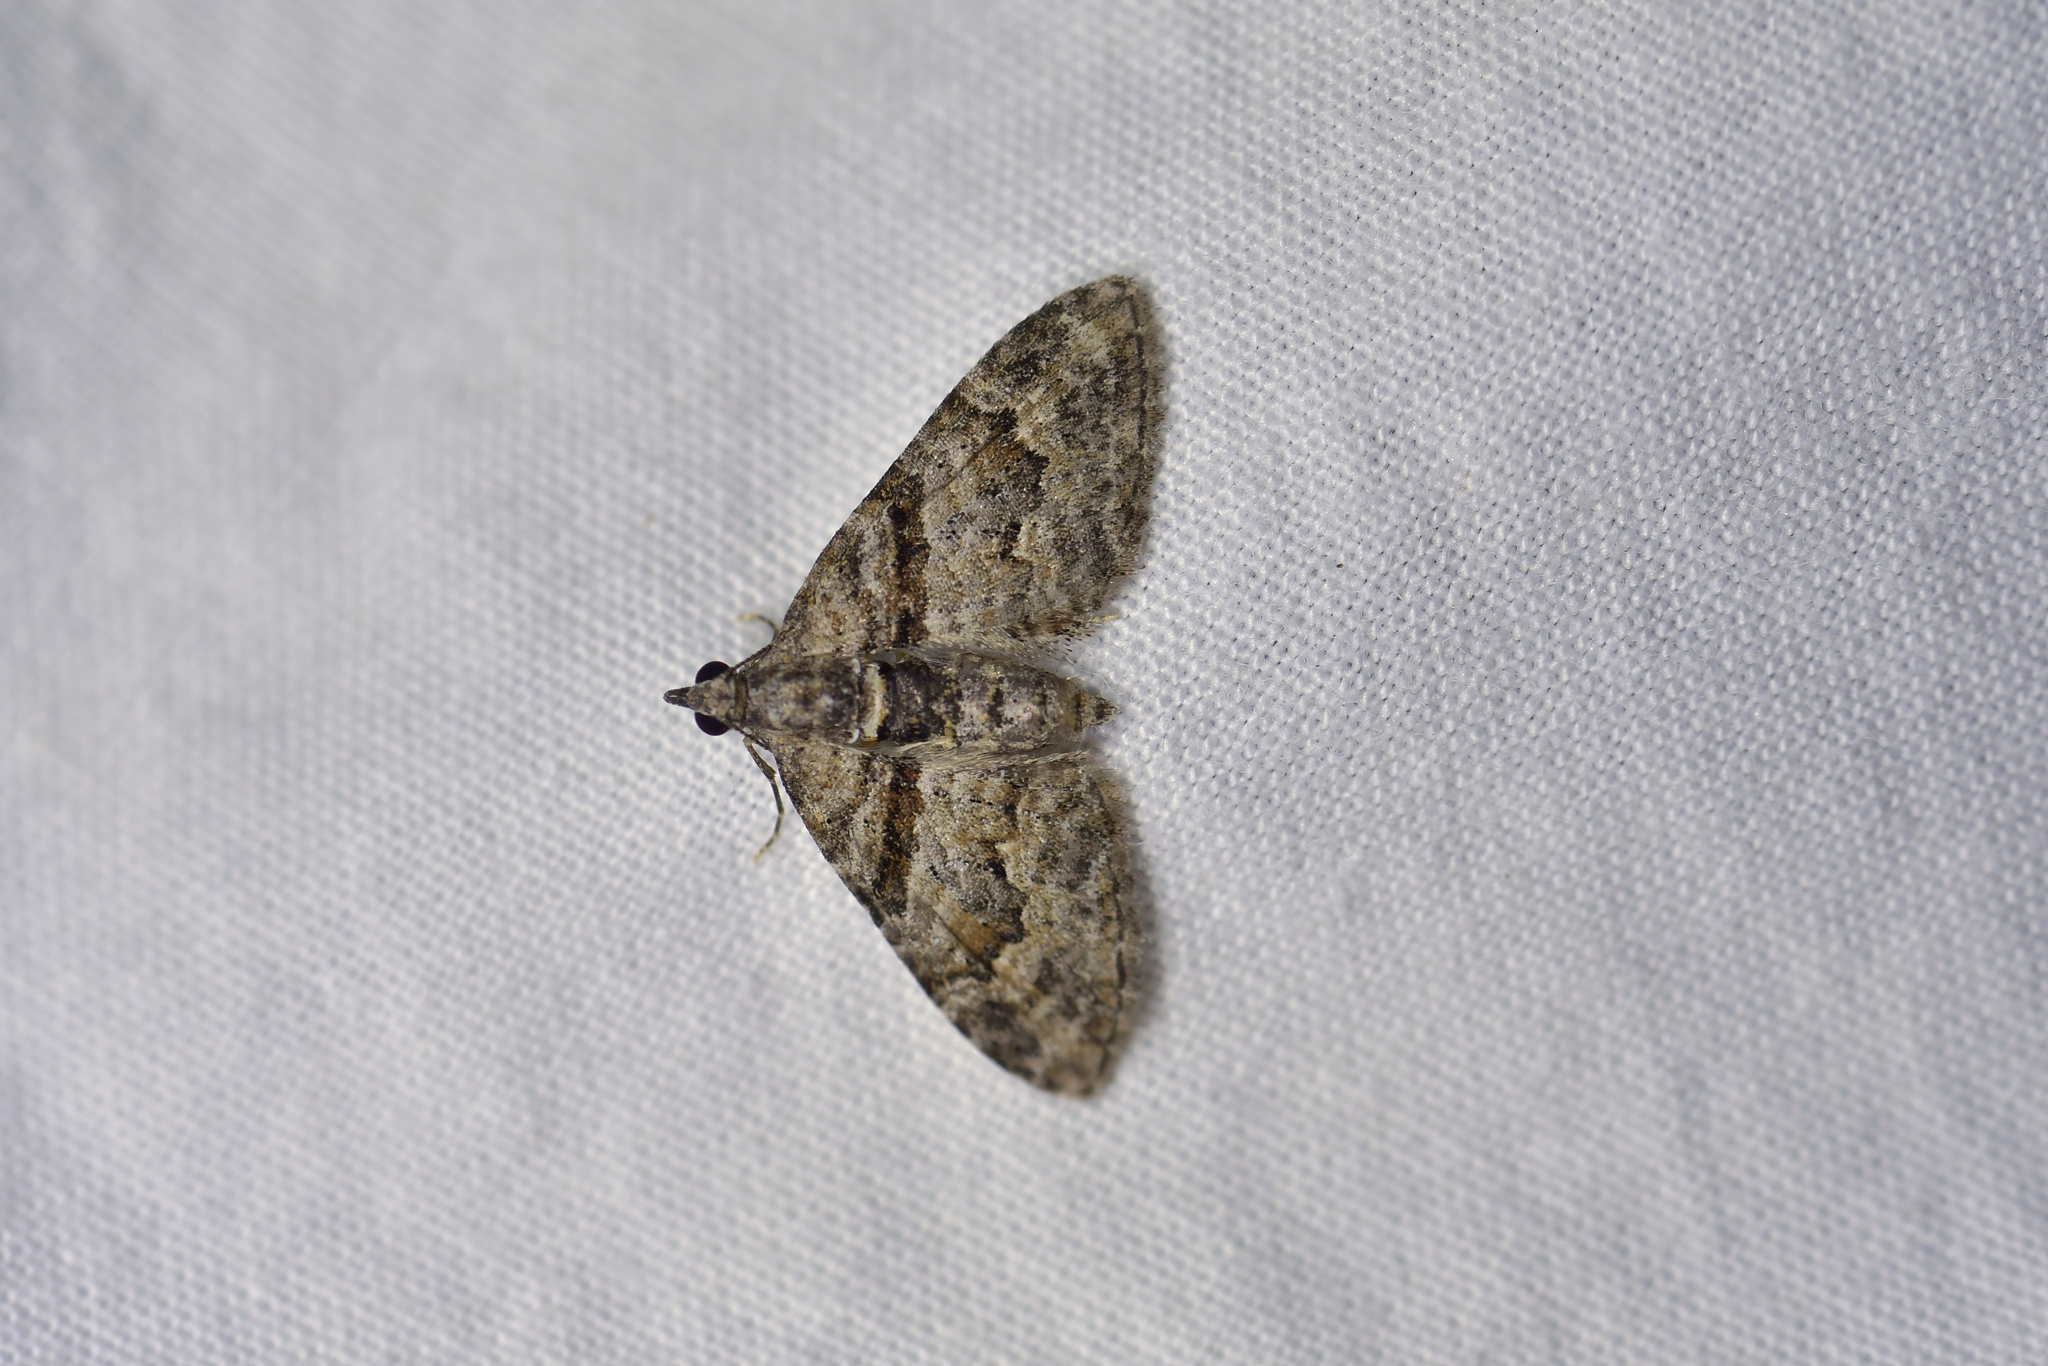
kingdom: Animalia
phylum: Arthropoda
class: Insecta
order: Lepidoptera
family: Geometridae
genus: Phrissogonus
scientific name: Phrissogonus laticostata
